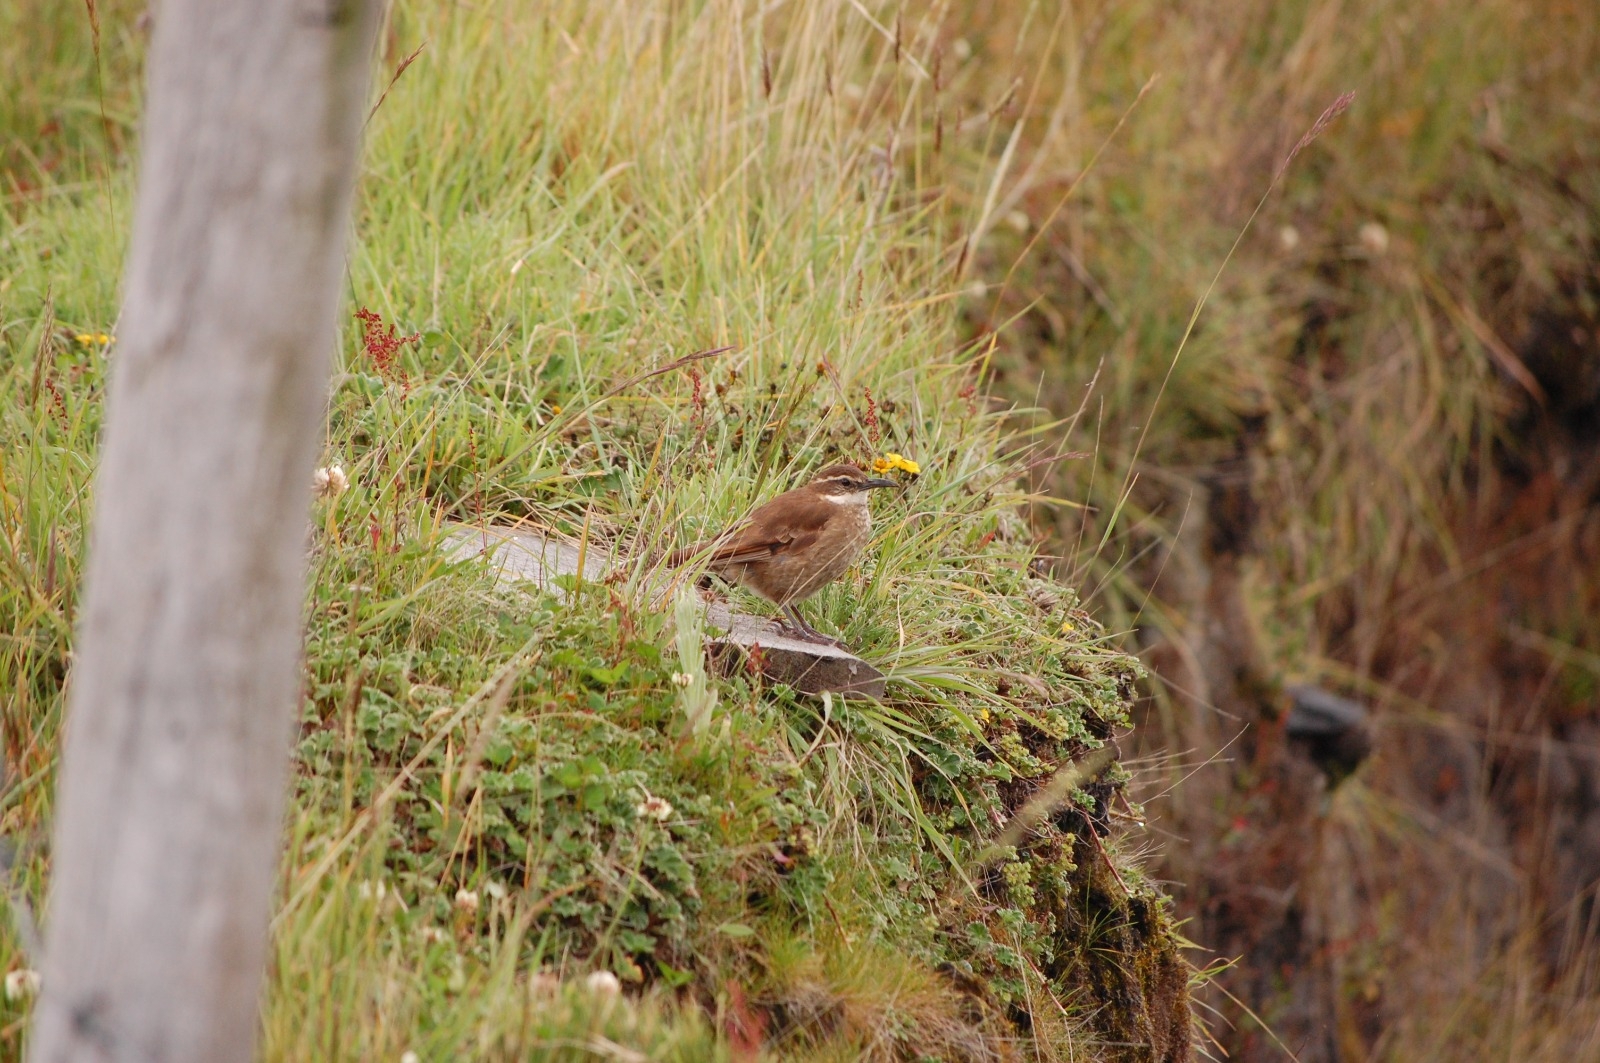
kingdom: Animalia
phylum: Chordata
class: Aves
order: Passeriformes
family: Furnariidae
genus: Cinclodes
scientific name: Cinclodes excelsior
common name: Stout-billed cinclodes
